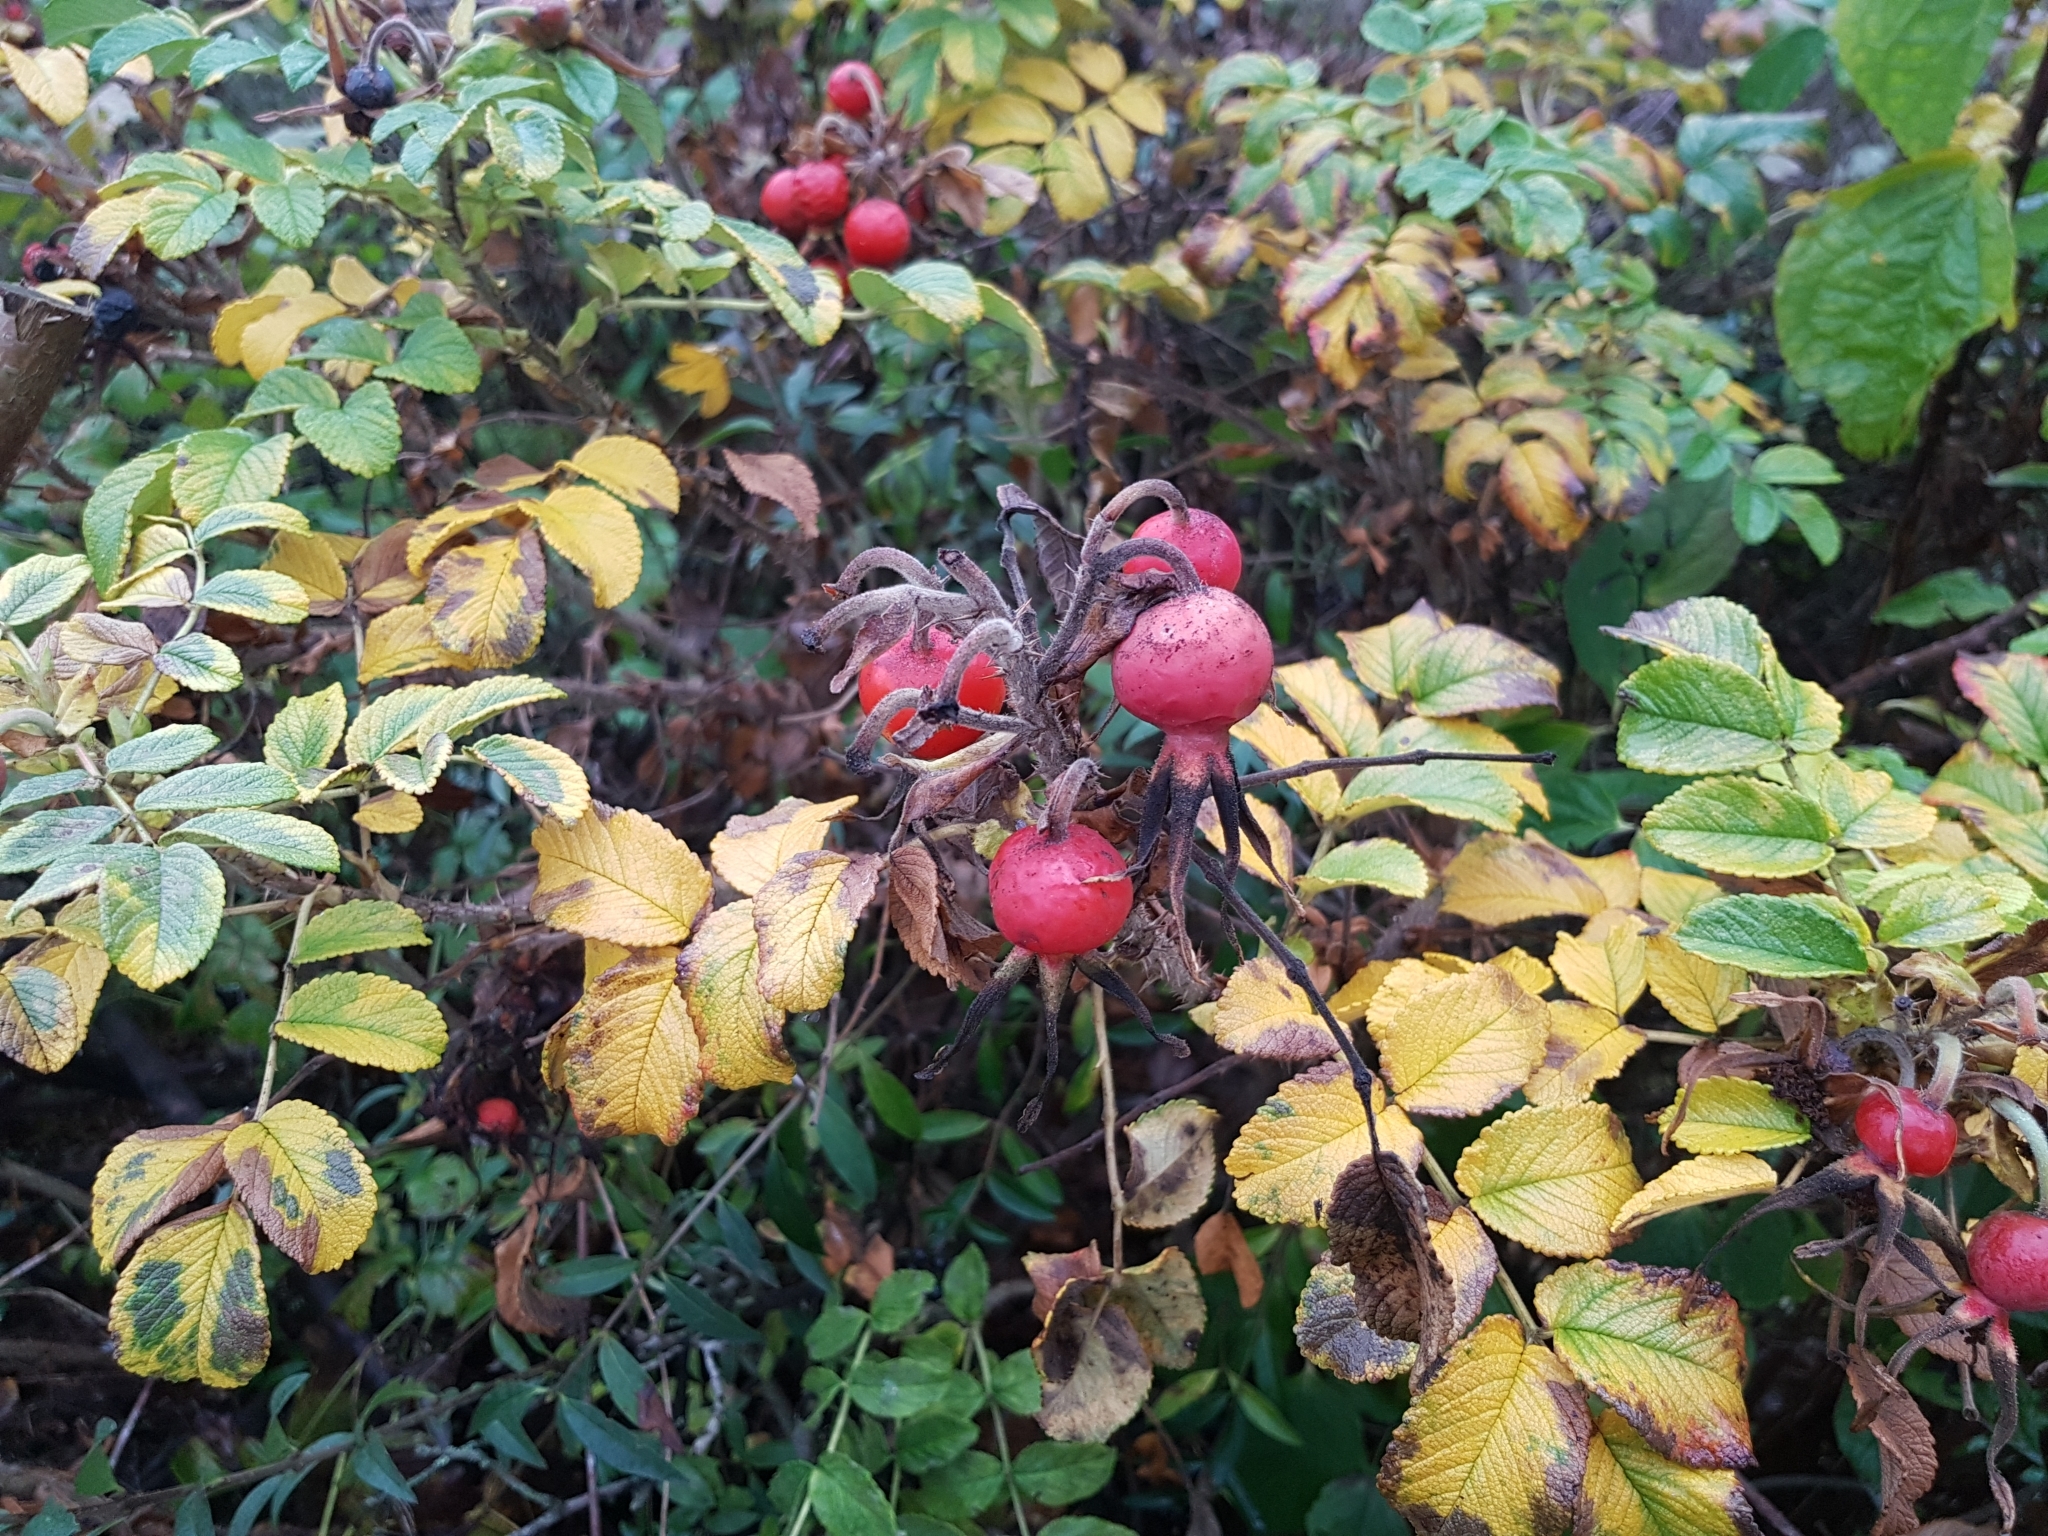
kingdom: Plantae
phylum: Tracheophyta
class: Magnoliopsida
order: Rosales
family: Rosaceae
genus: Rosa
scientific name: Rosa rugosa
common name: Japanese rose
